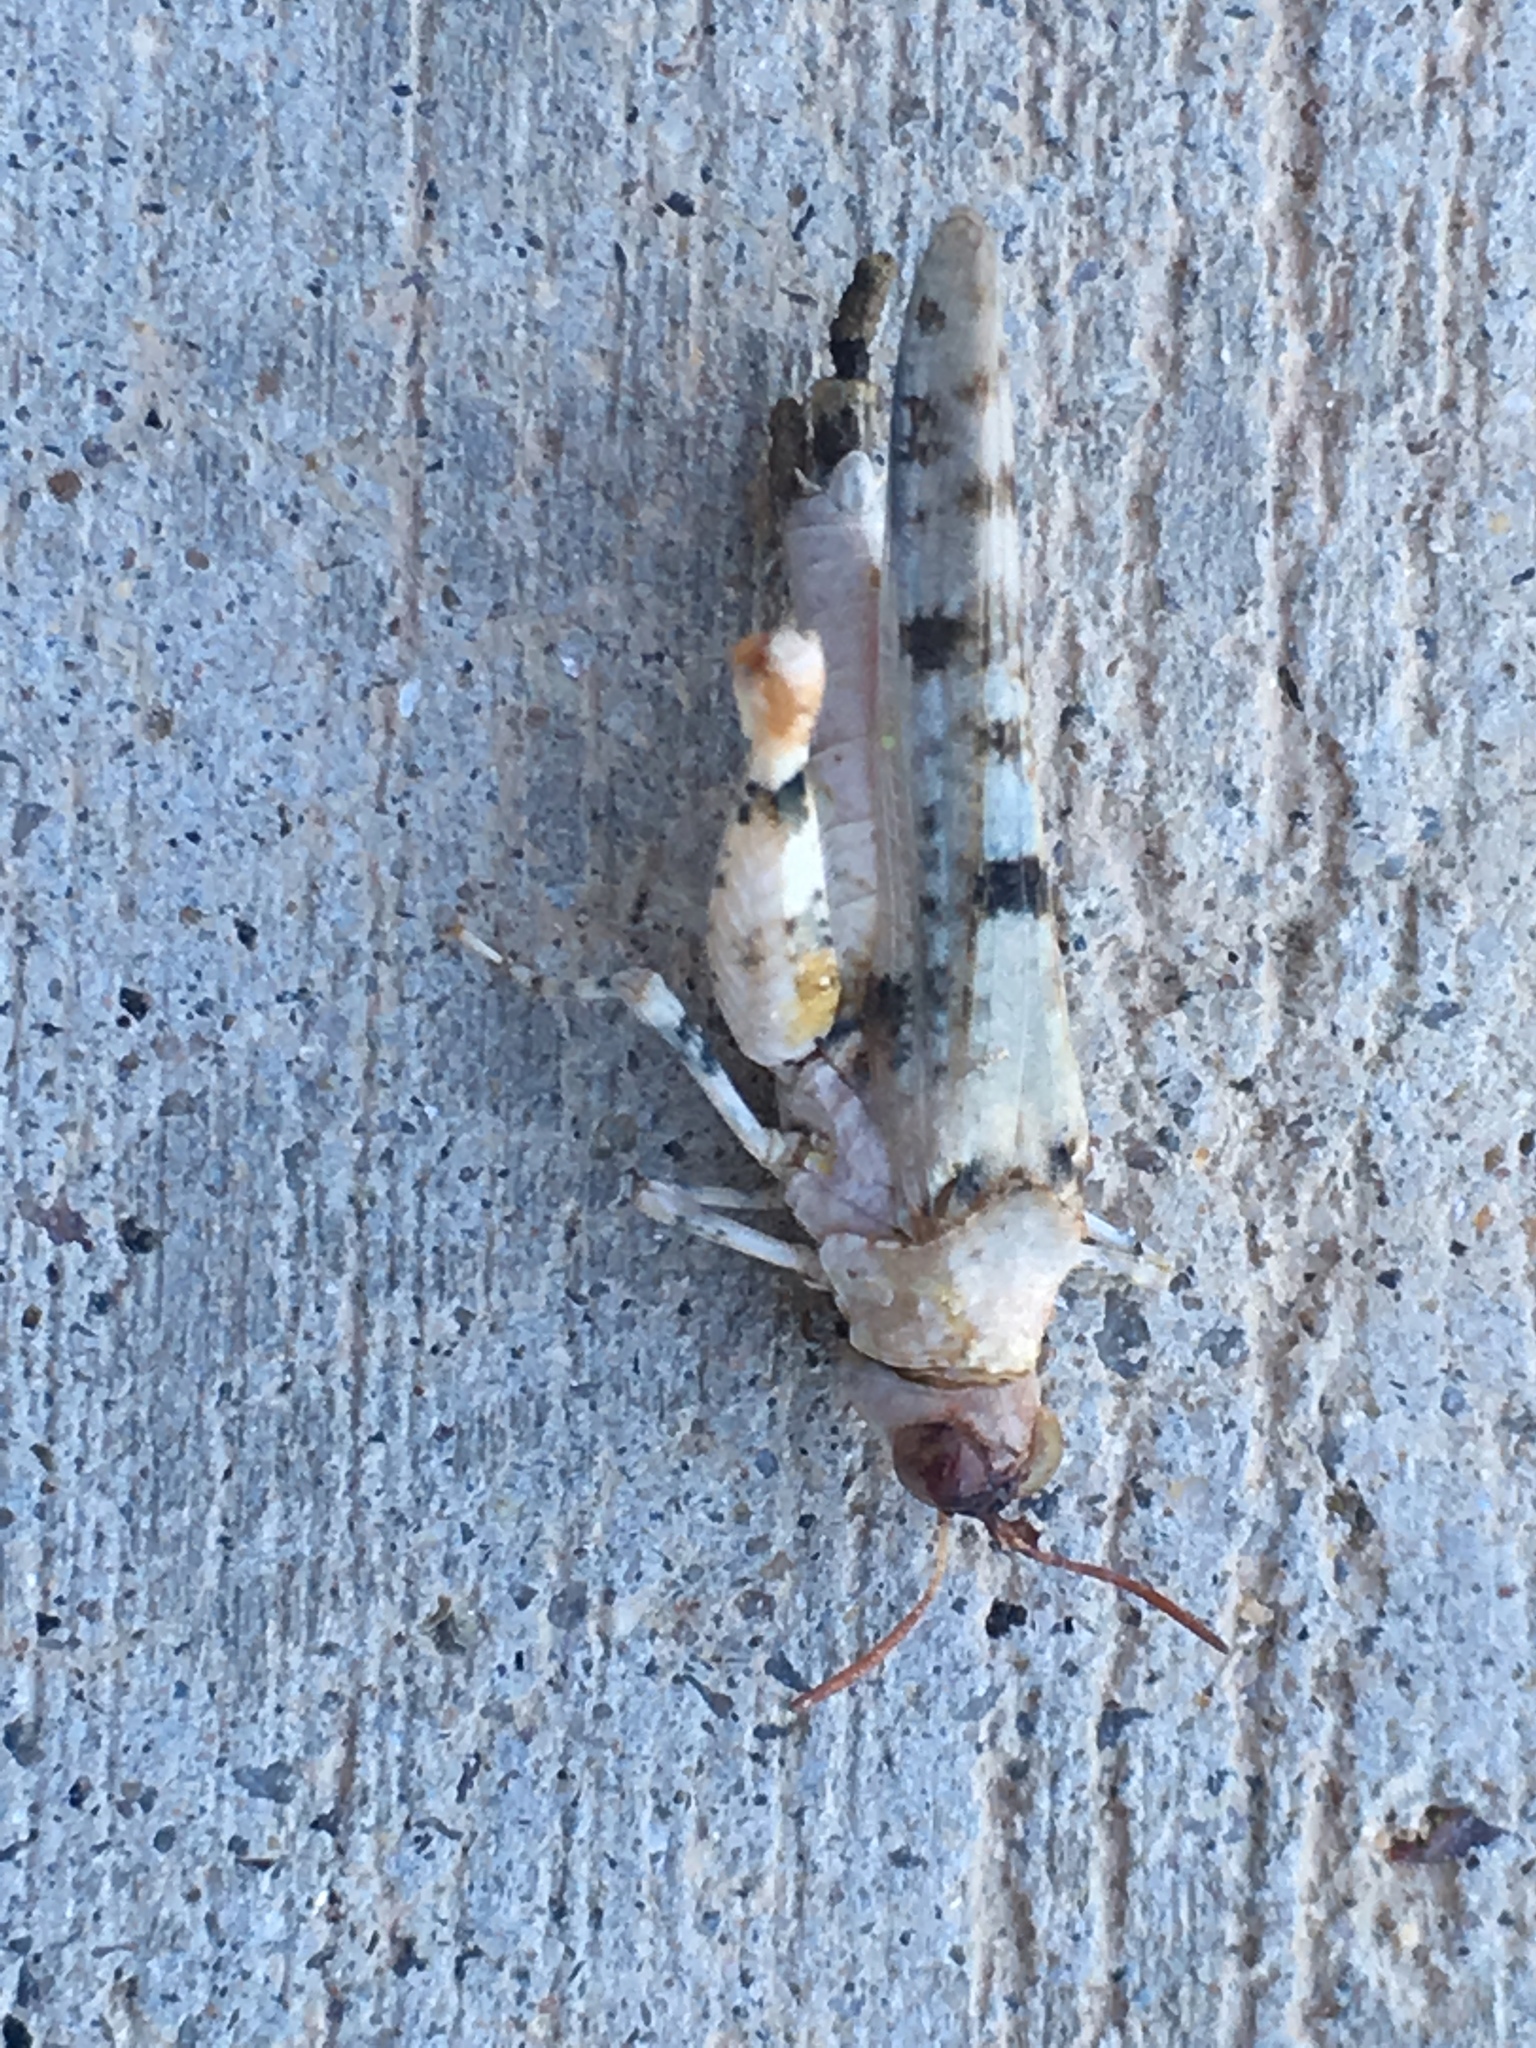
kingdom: Animalia
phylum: Arthropoda
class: Insecta
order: Orthoptera
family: Acrididae
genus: Cibolacris
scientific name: Cibolacris parviceps
